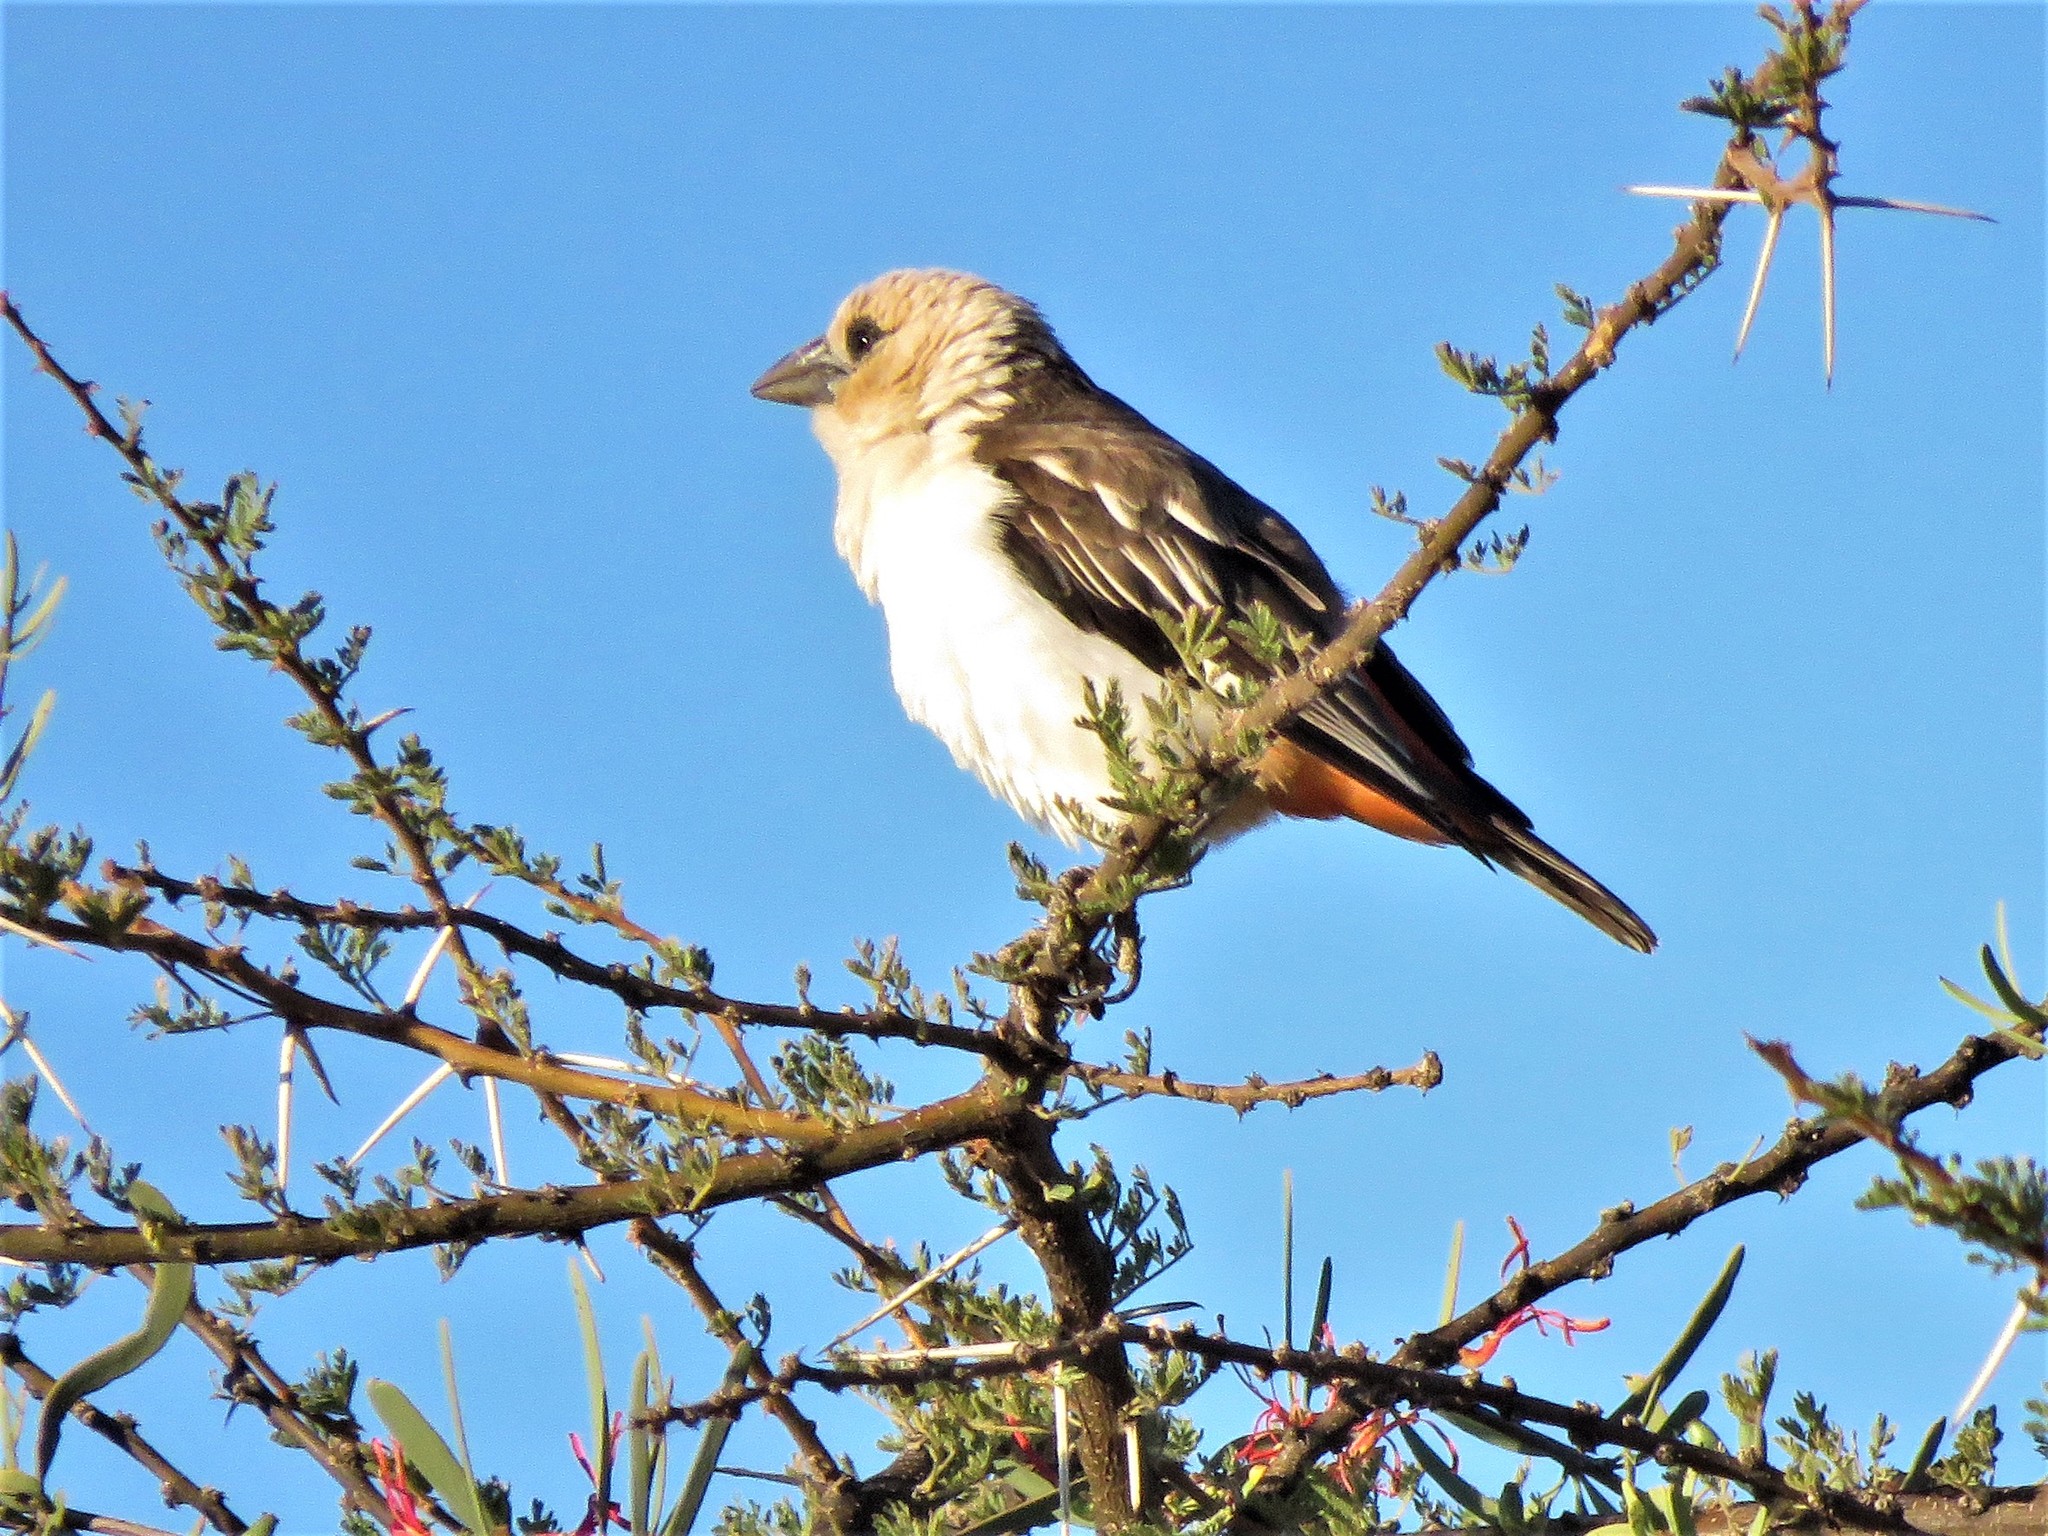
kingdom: Animalia
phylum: Chordata
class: Aves
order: Passeriformes
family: Ploceidae
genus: Dinemellia
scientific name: Dinemellia dinemelli
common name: White-headed buffalo weaver
